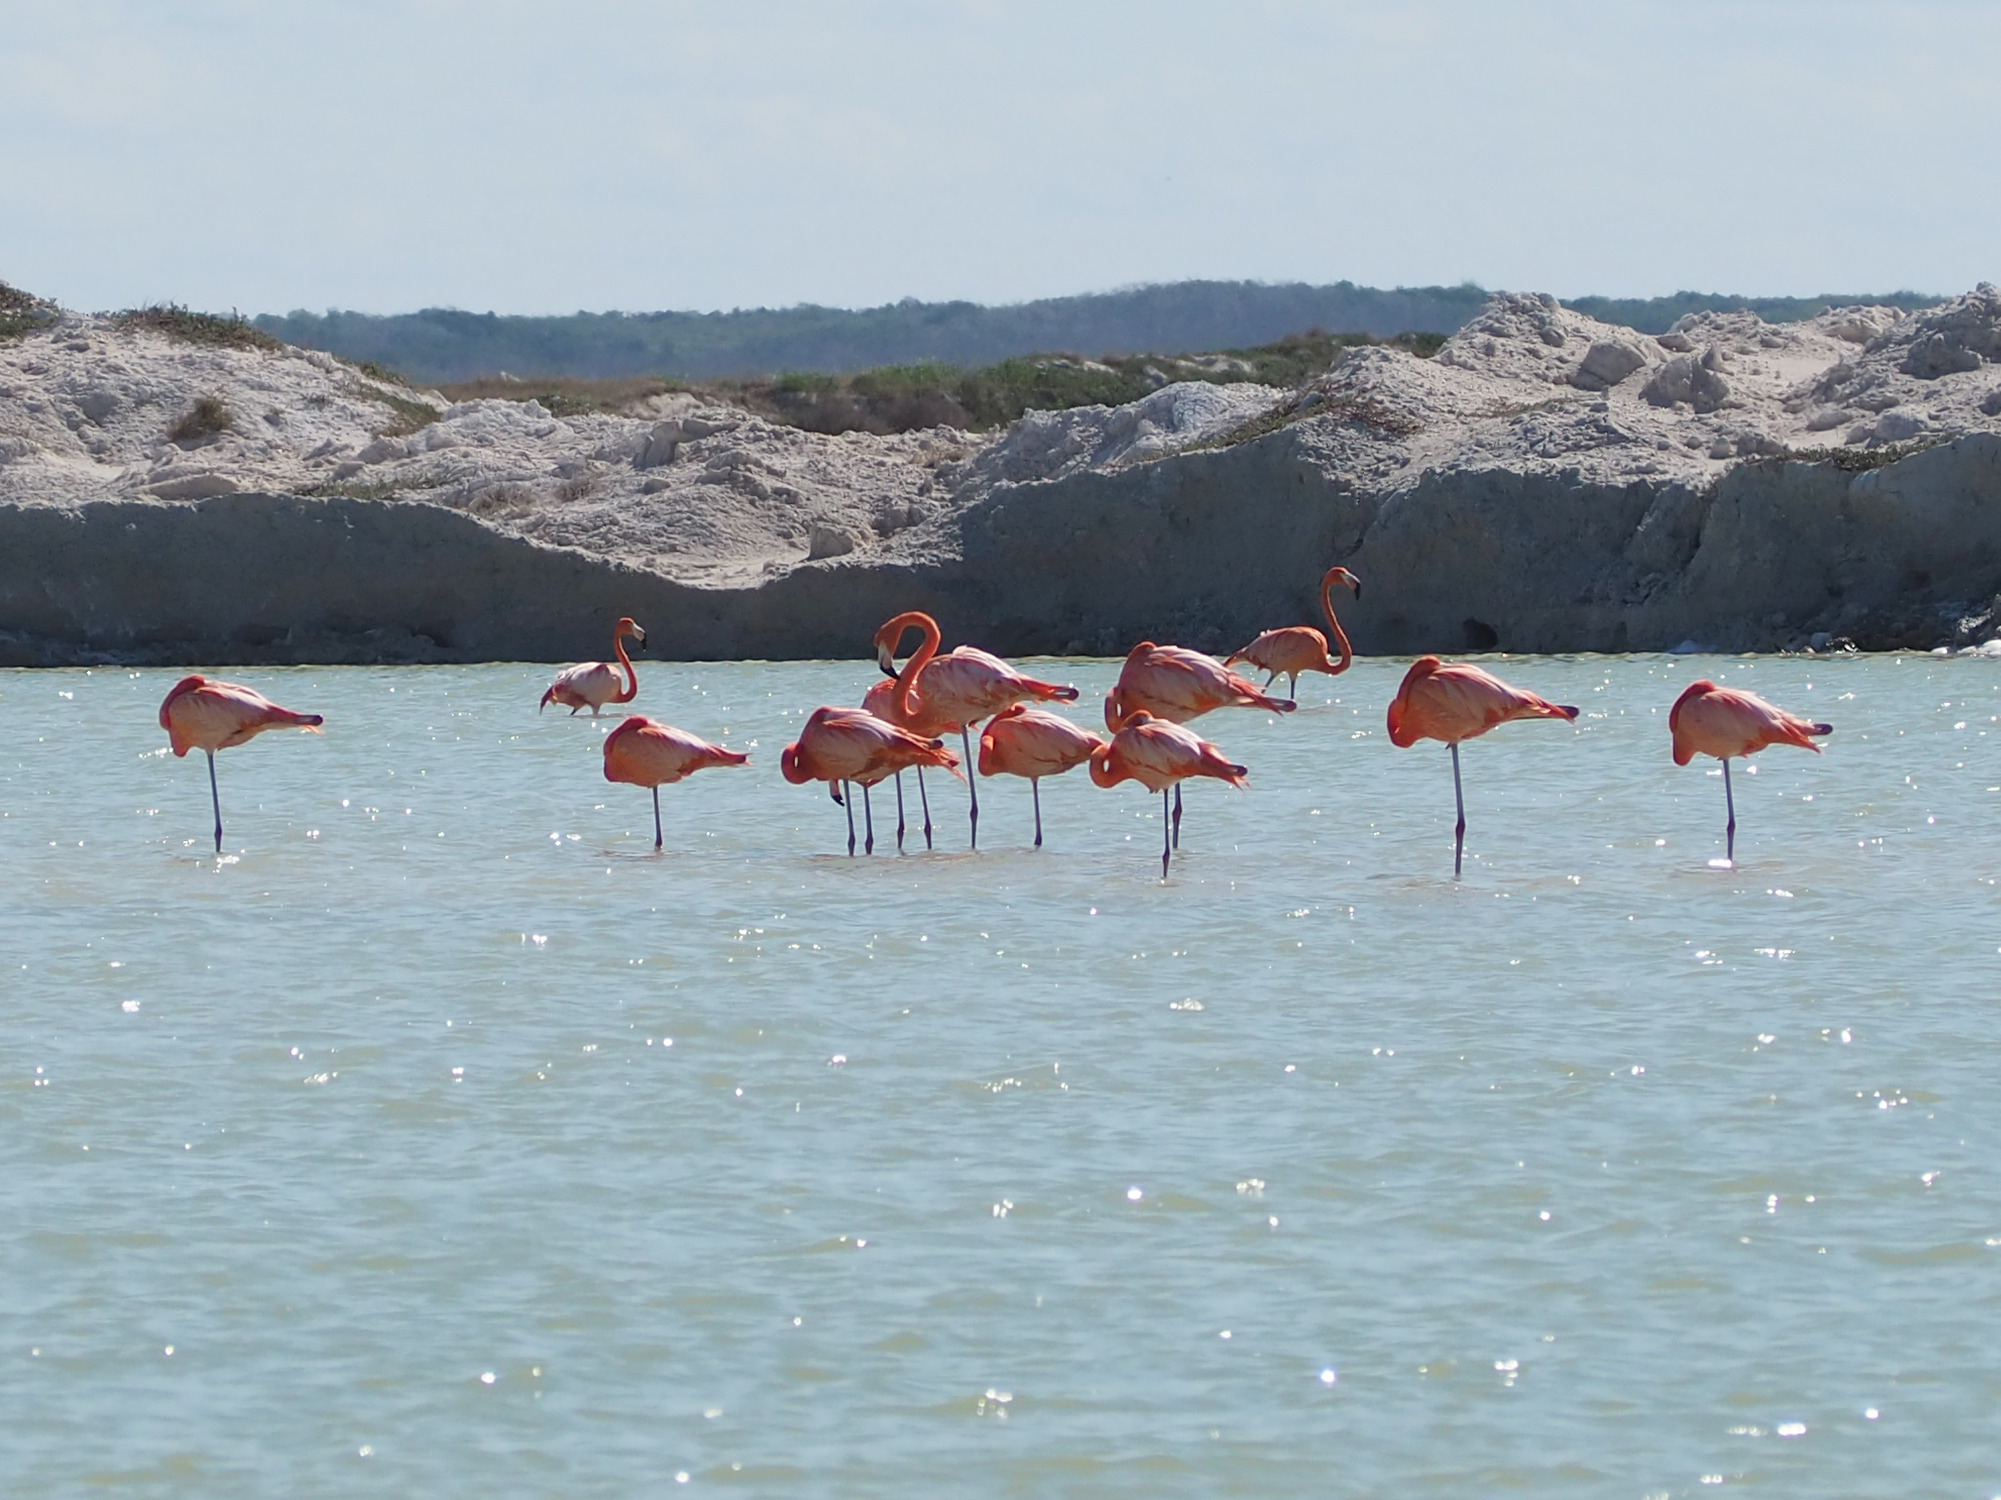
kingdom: Animalia
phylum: Chordata
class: Aves
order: Phoenicopteriformes
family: Phoenicopteridae
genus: Phoenicopterus
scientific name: Phoenicopterus ruber
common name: American flamingo
